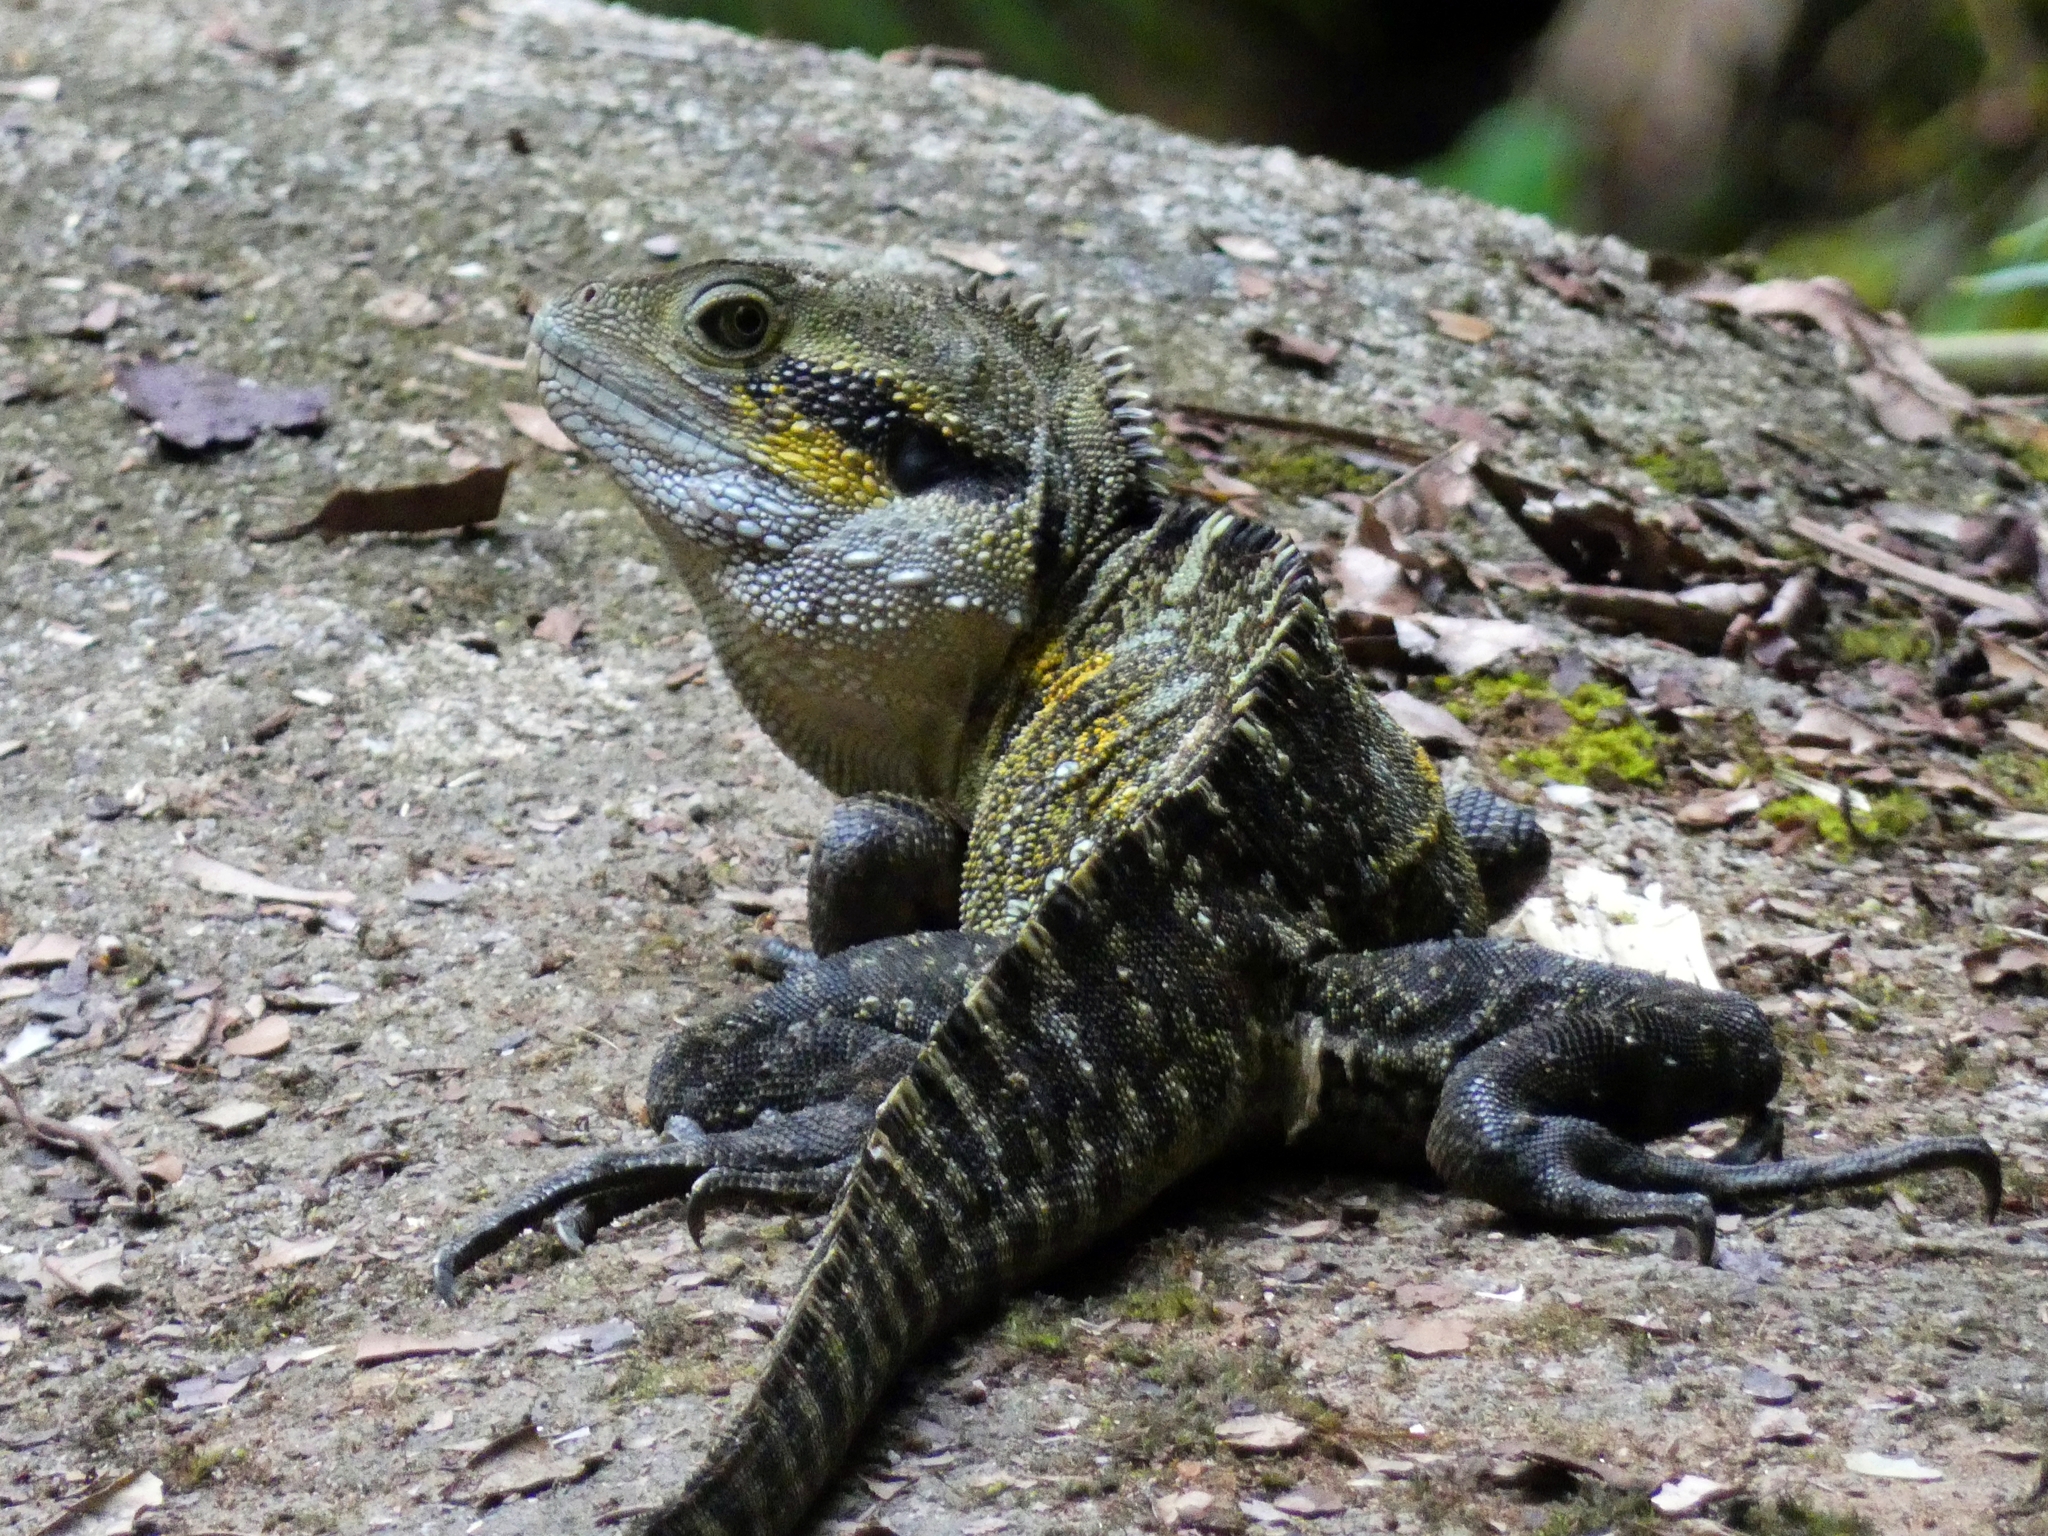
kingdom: Animalia
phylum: Chordata
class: Squamata
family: Agamidae
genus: Intellagama
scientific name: Intellagama lesueurii
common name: Eastern water dragon
